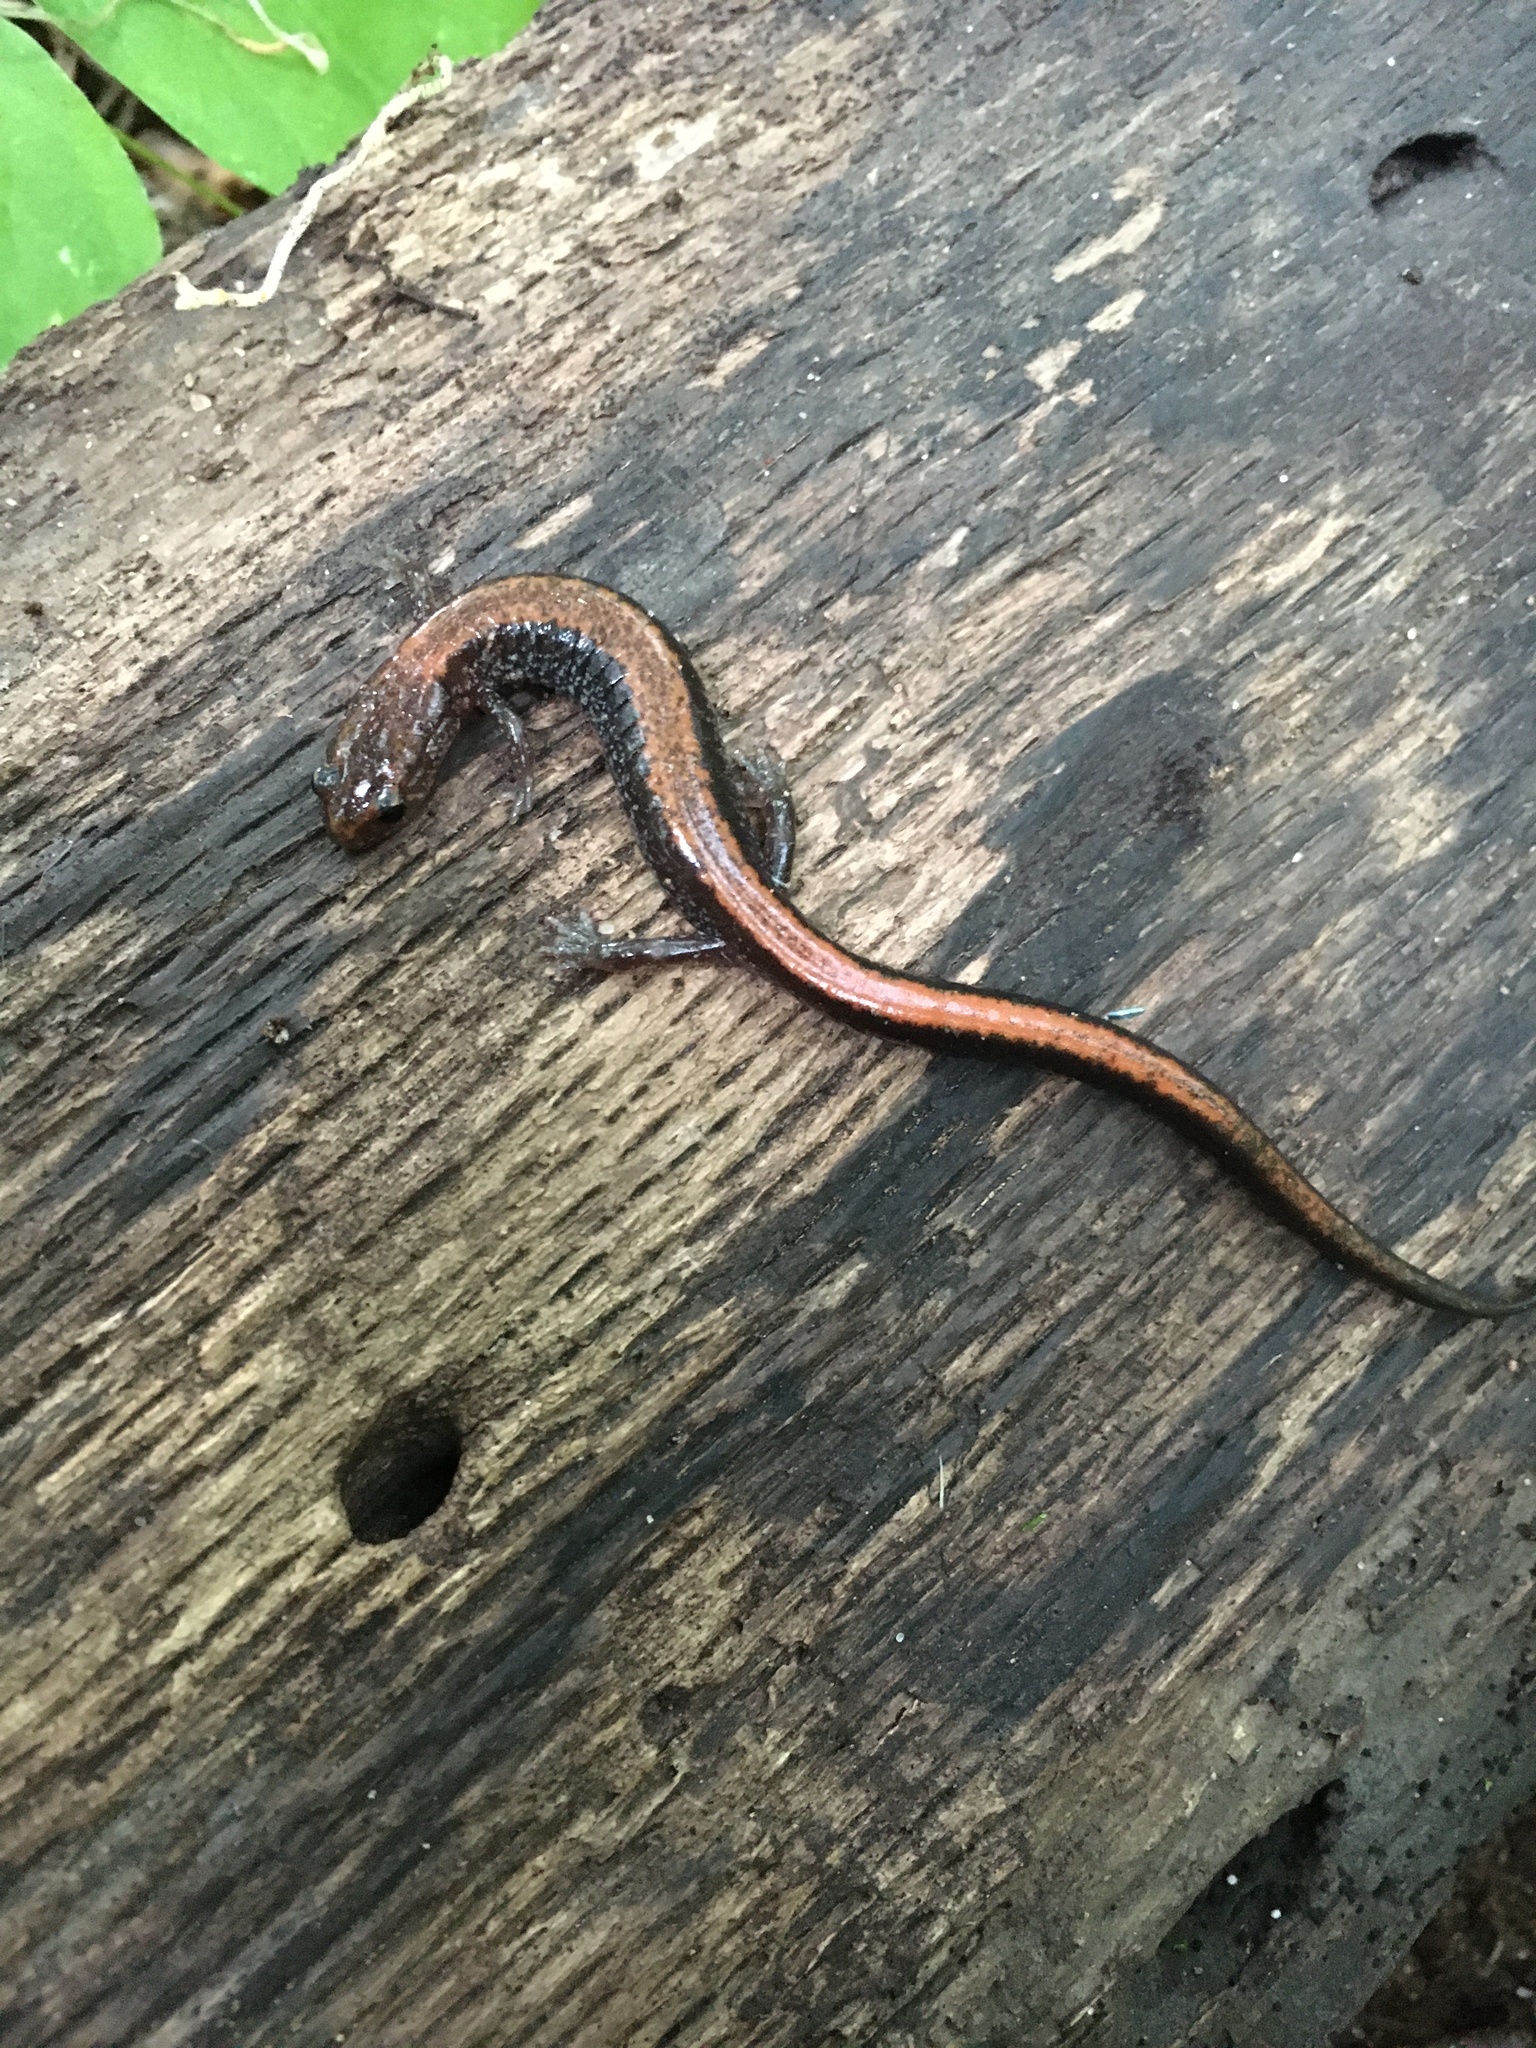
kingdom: Animalia
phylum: Chordata
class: Amphibia
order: Caudata
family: Plethodontidae
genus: Plethodon
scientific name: Plethodon cinereus
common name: Redback salamander
